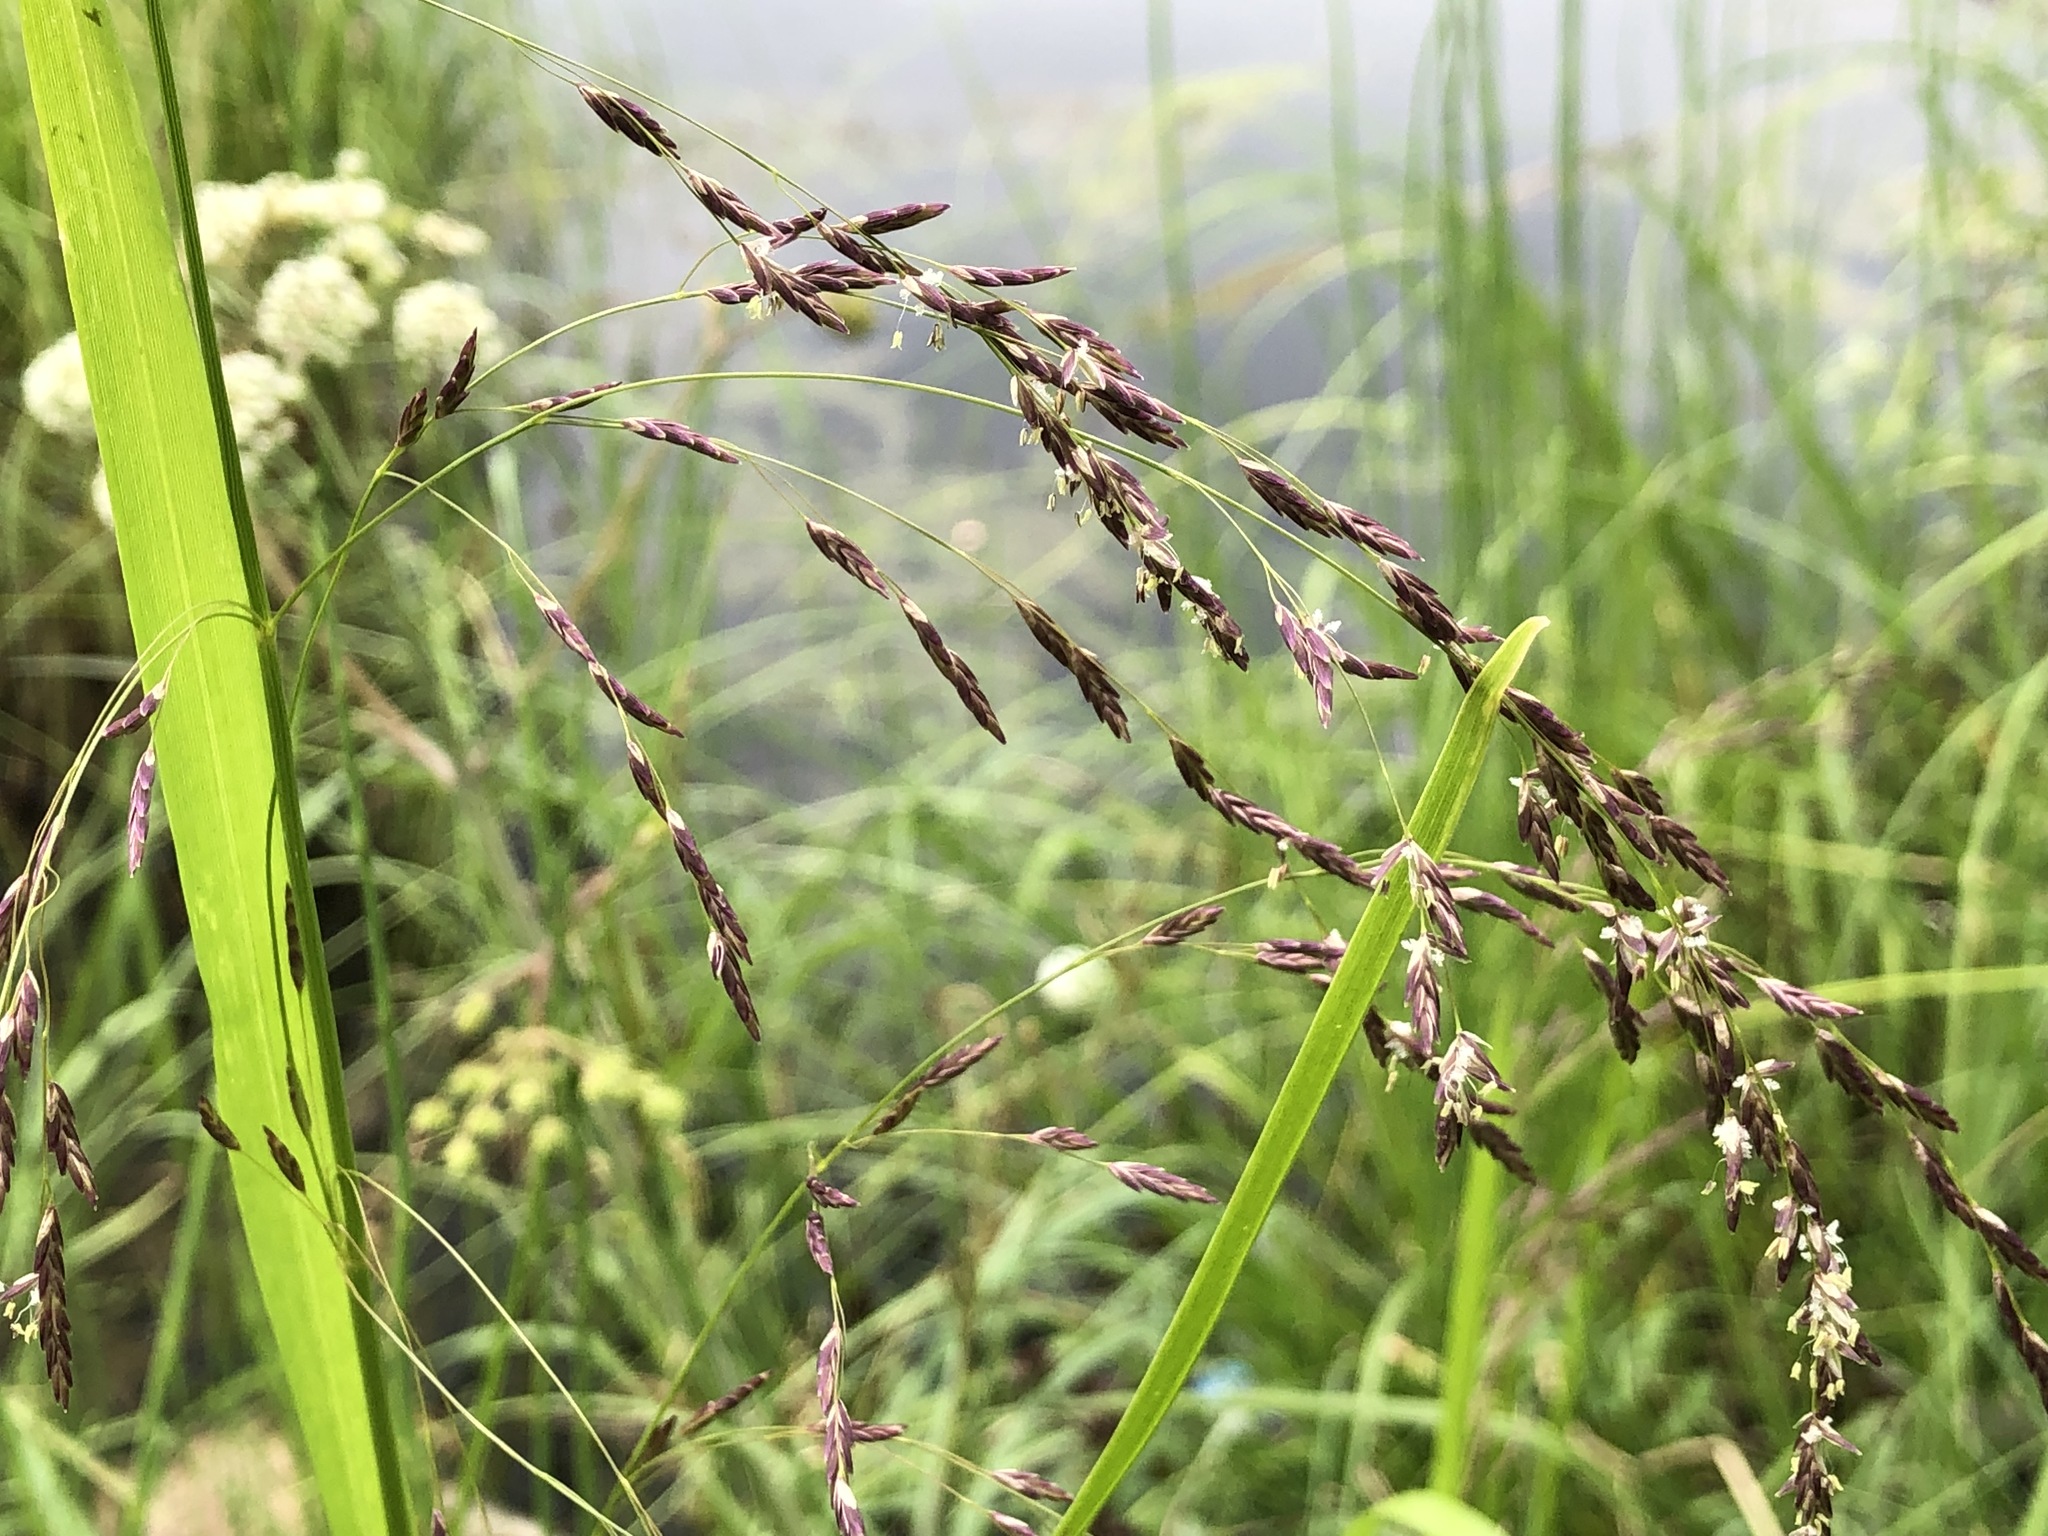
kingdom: Plantae
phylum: Tracheophyta
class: Liliopsida
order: Poales
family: Poaceae
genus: Glyceria
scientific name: Glyceria pulchella
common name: Mackenzie valley mannagrass
